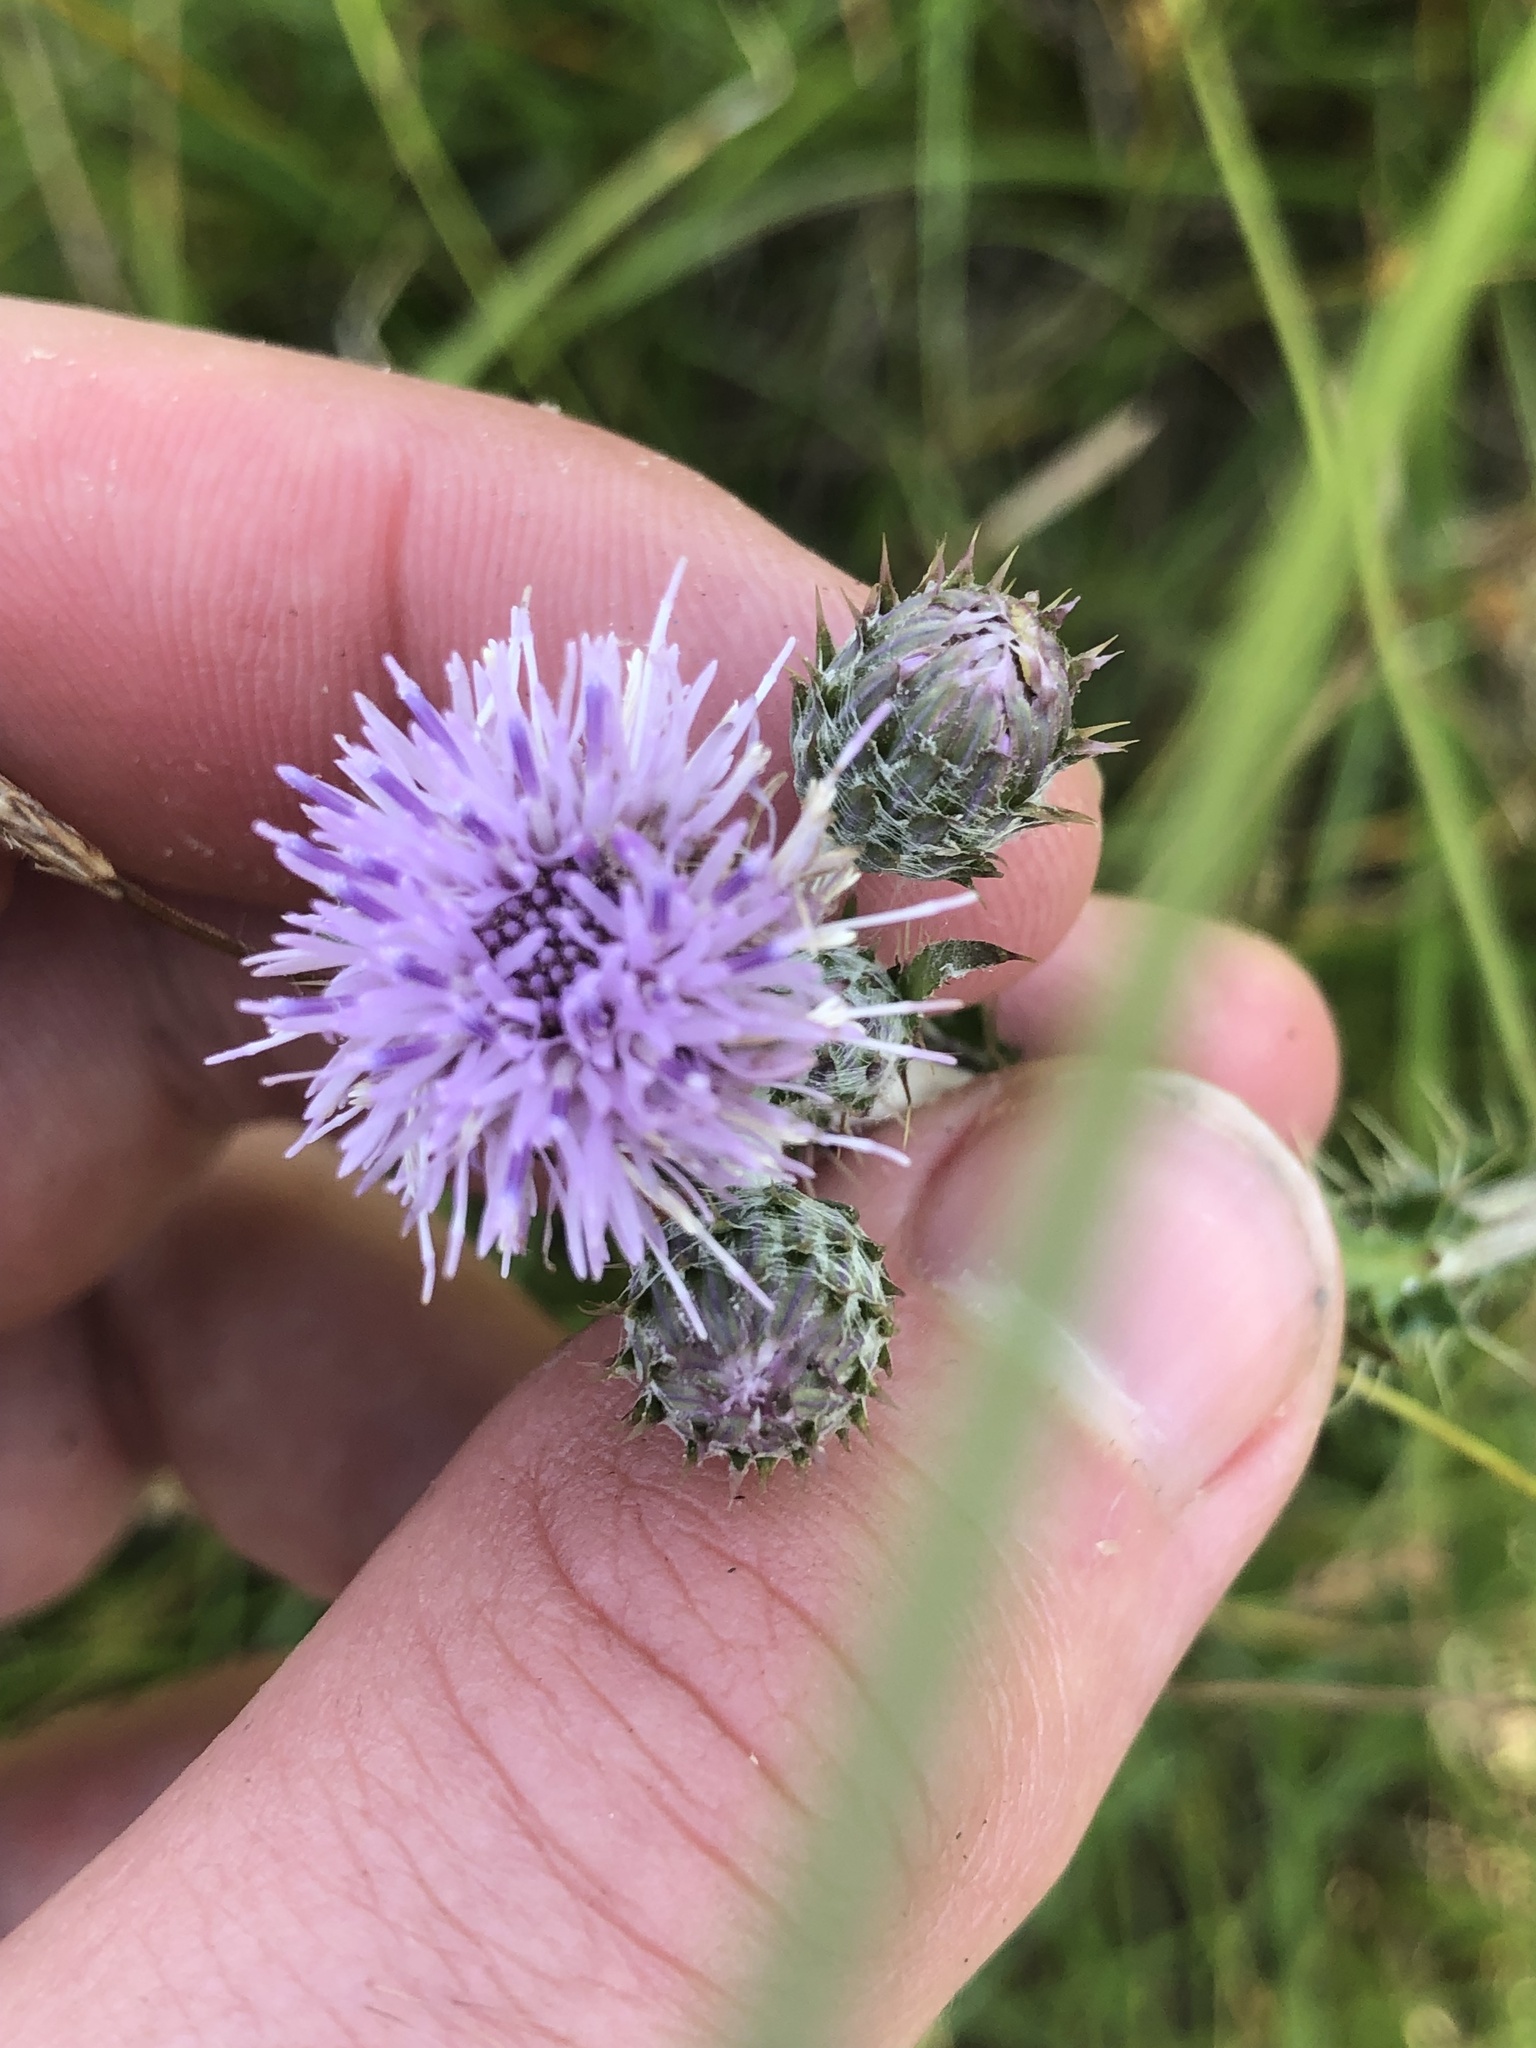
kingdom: Plantae
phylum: Tracheophyta
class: Magnoliopsida
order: Asterales
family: Asteraceae
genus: Cirsium
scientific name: Cirsium brachycephalum
